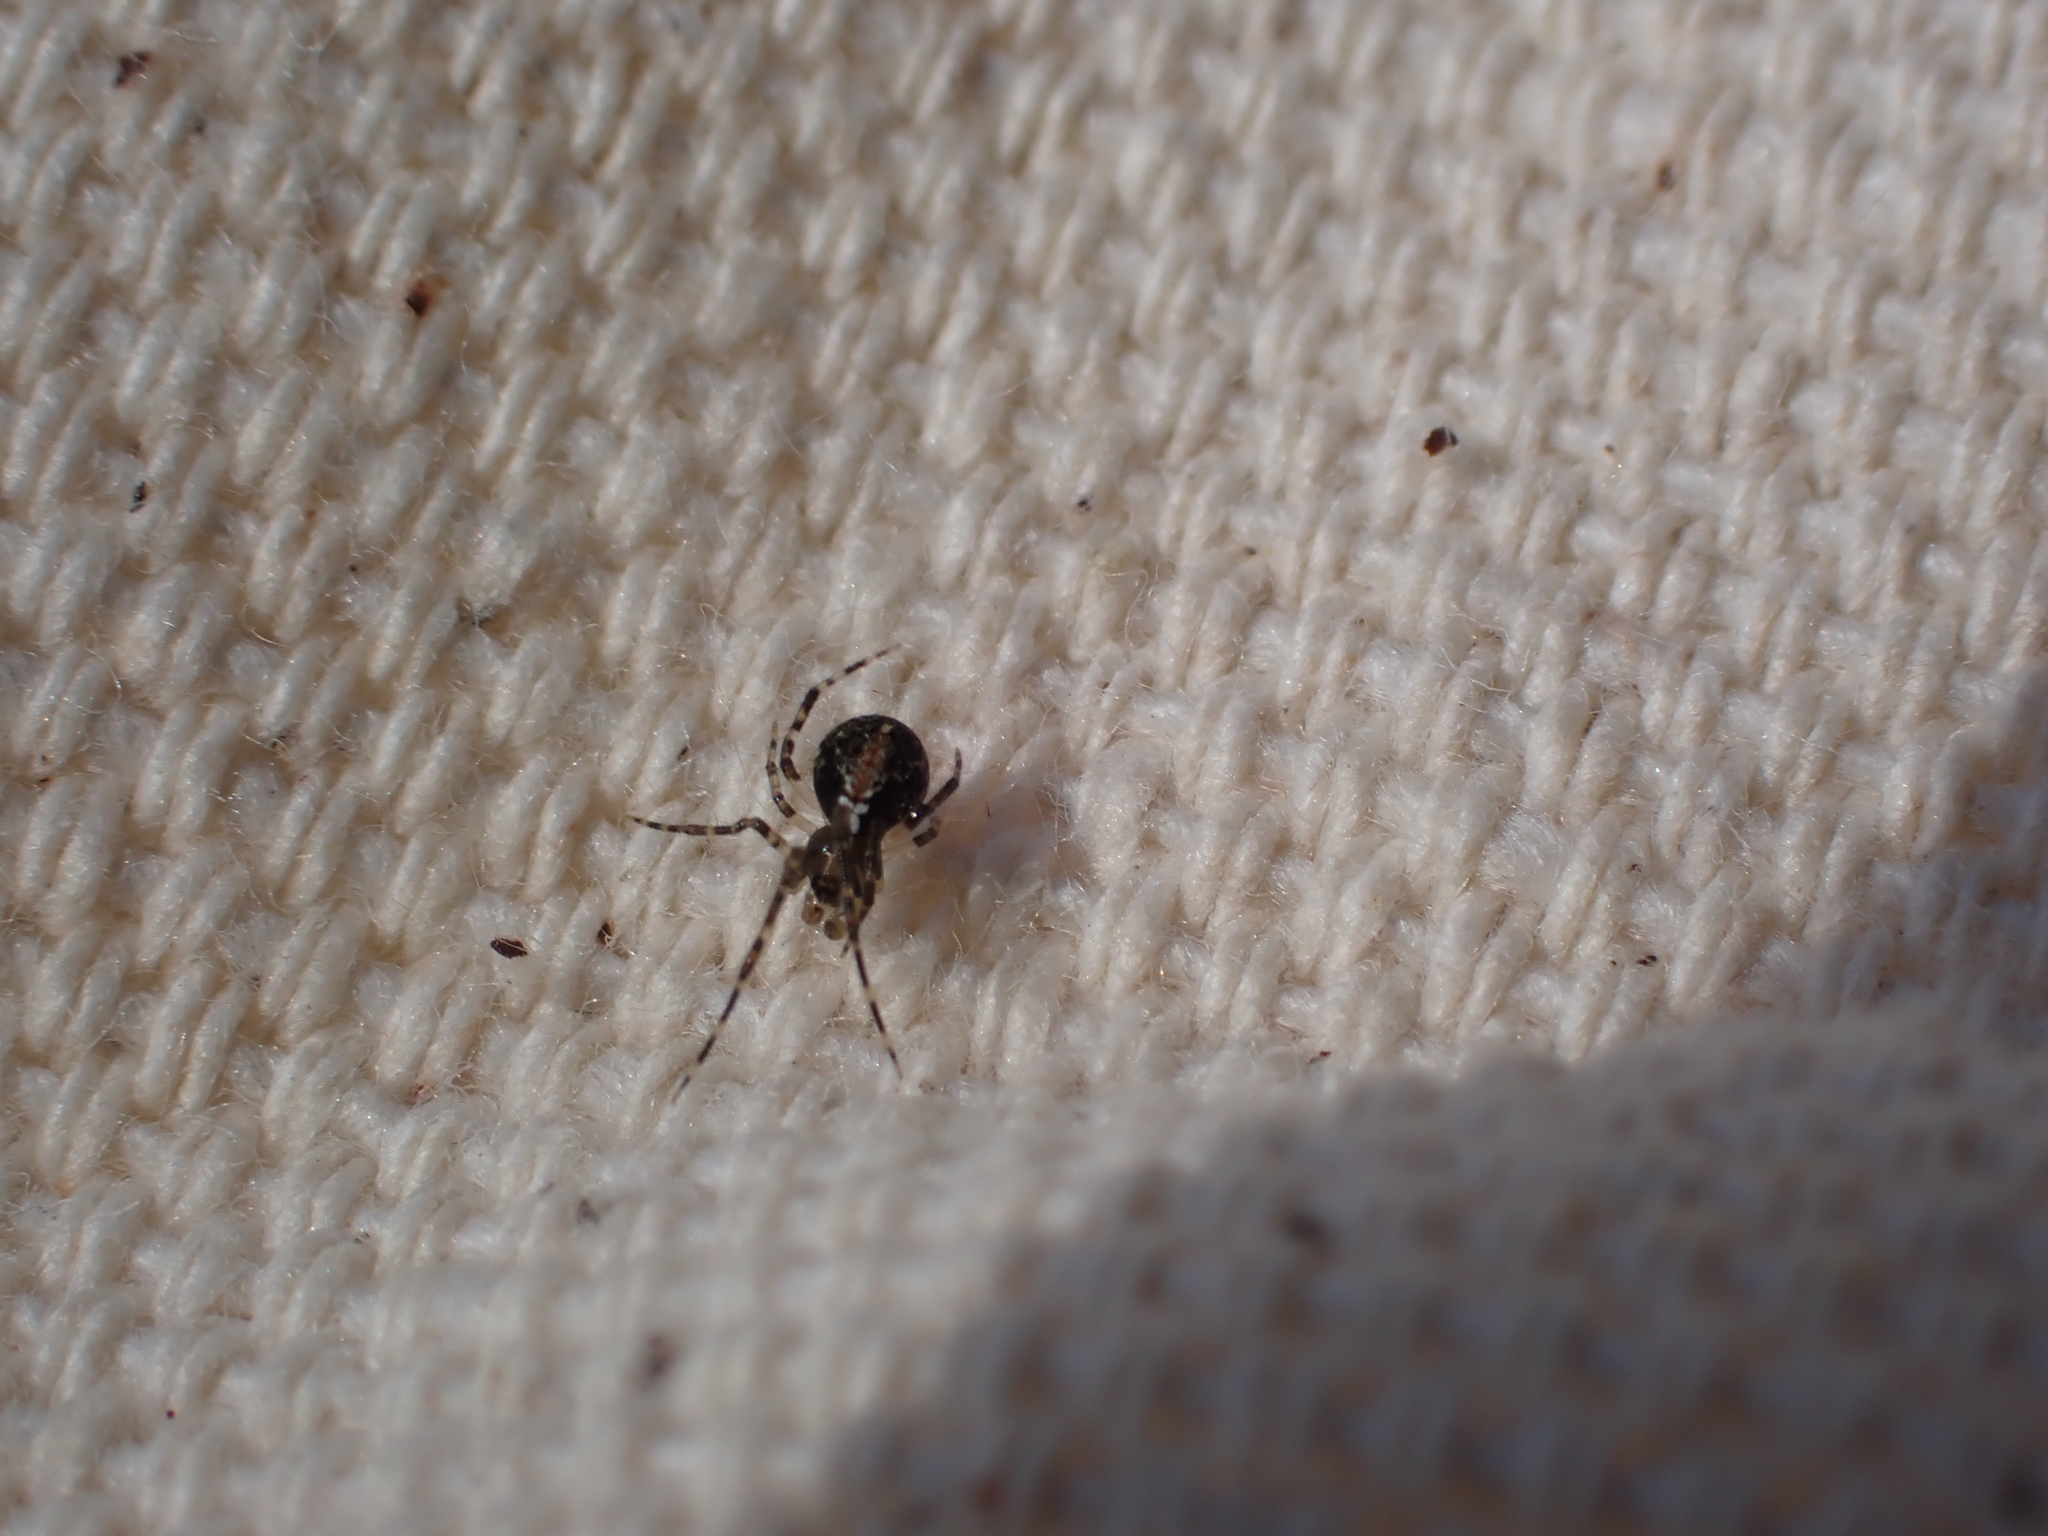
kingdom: Animalia
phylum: Arthropoda
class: Arachnida
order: Araneae
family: Theridiidae
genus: Yunohamella
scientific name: Yunohamella lyrica
